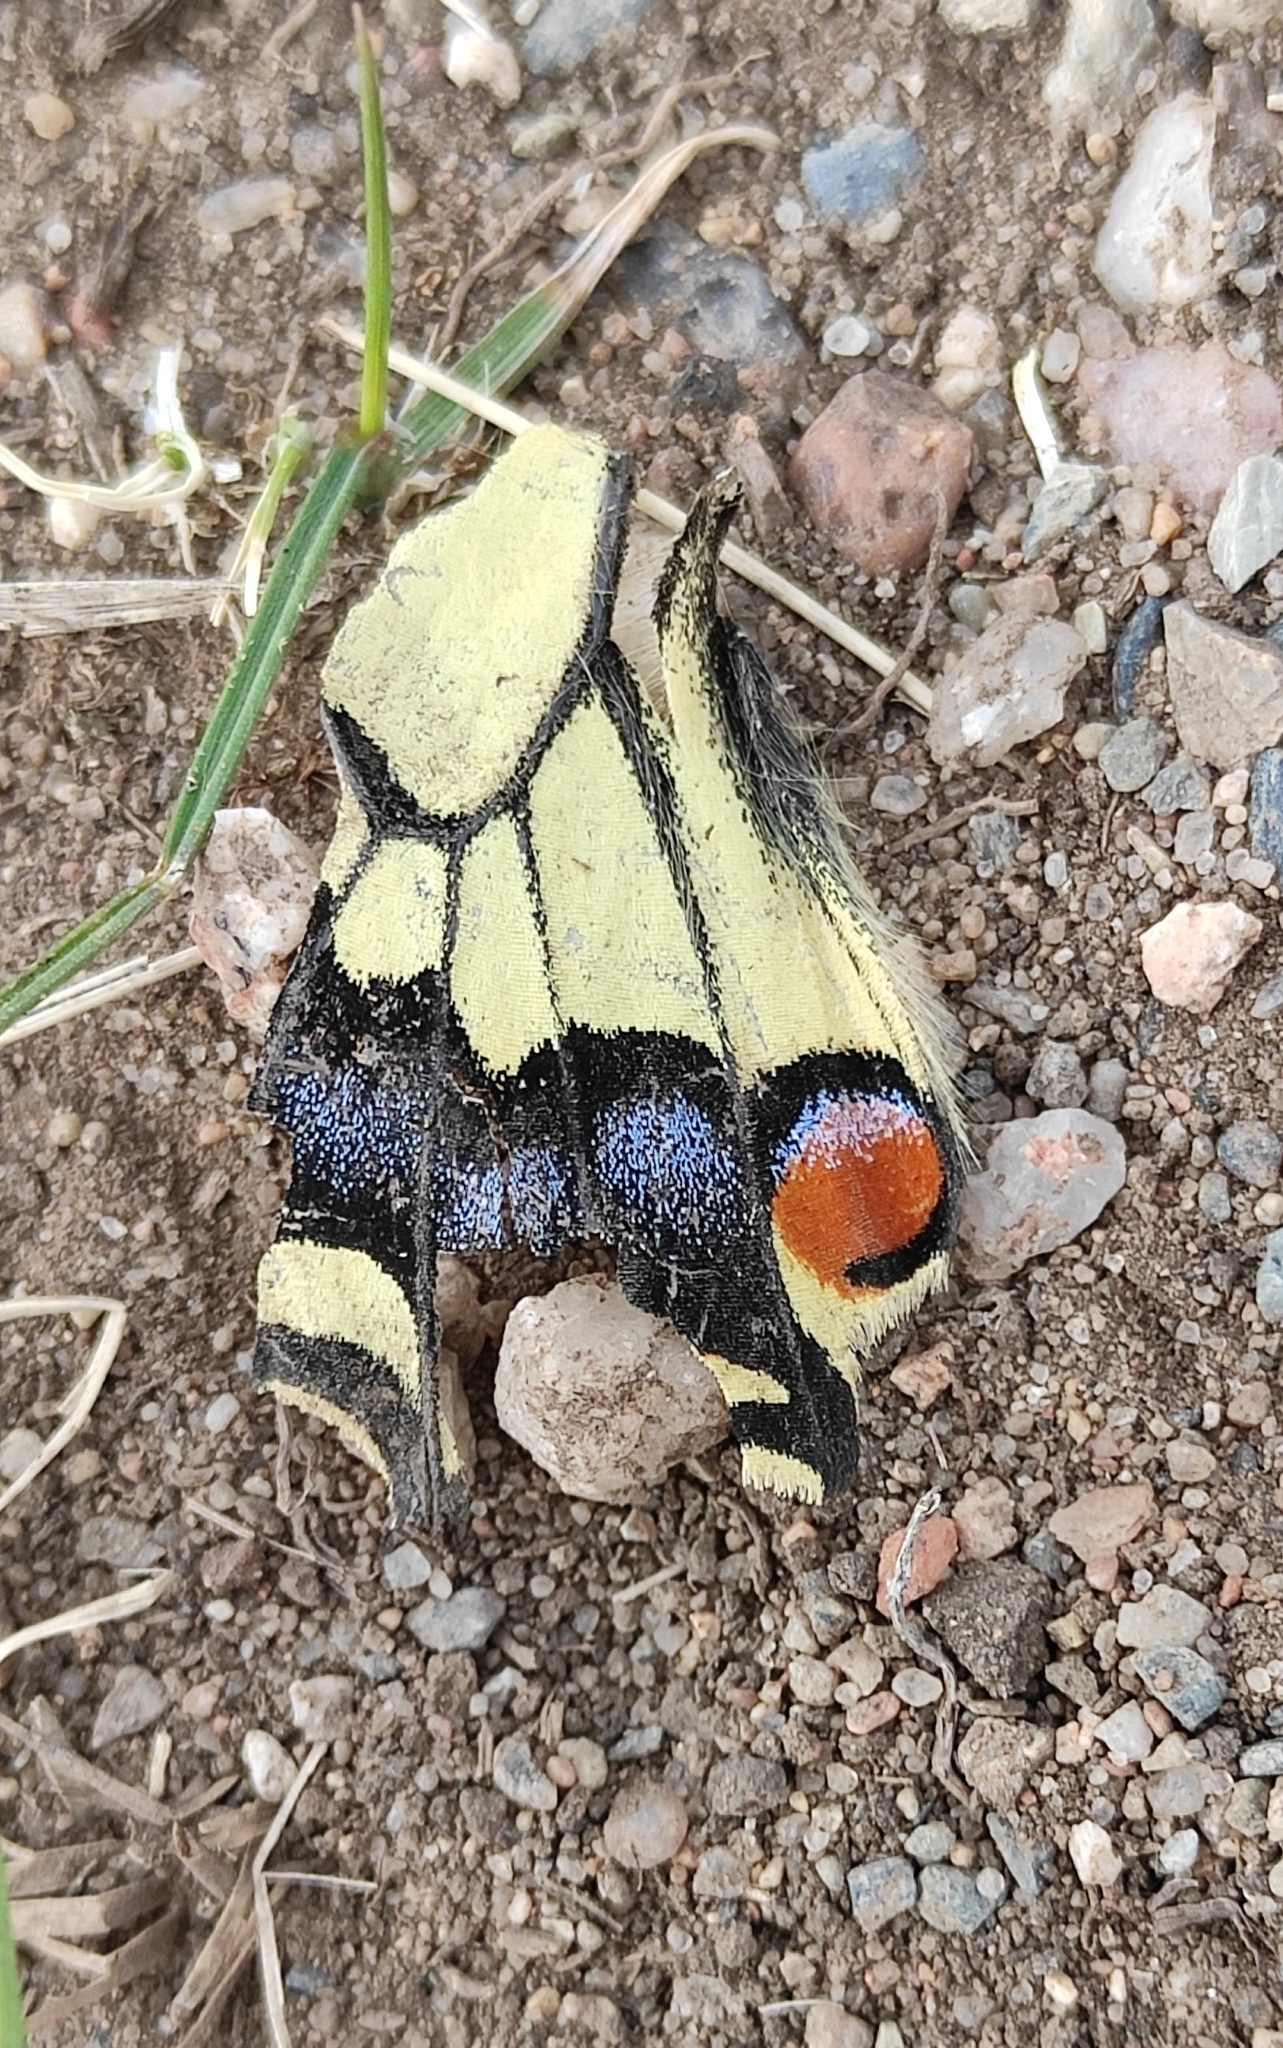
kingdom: Animalia
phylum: Arthropoda
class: Insecta
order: Lepidoptera
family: Papilionidae
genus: Papilio
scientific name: Papilio machaon
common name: Swallowtail
